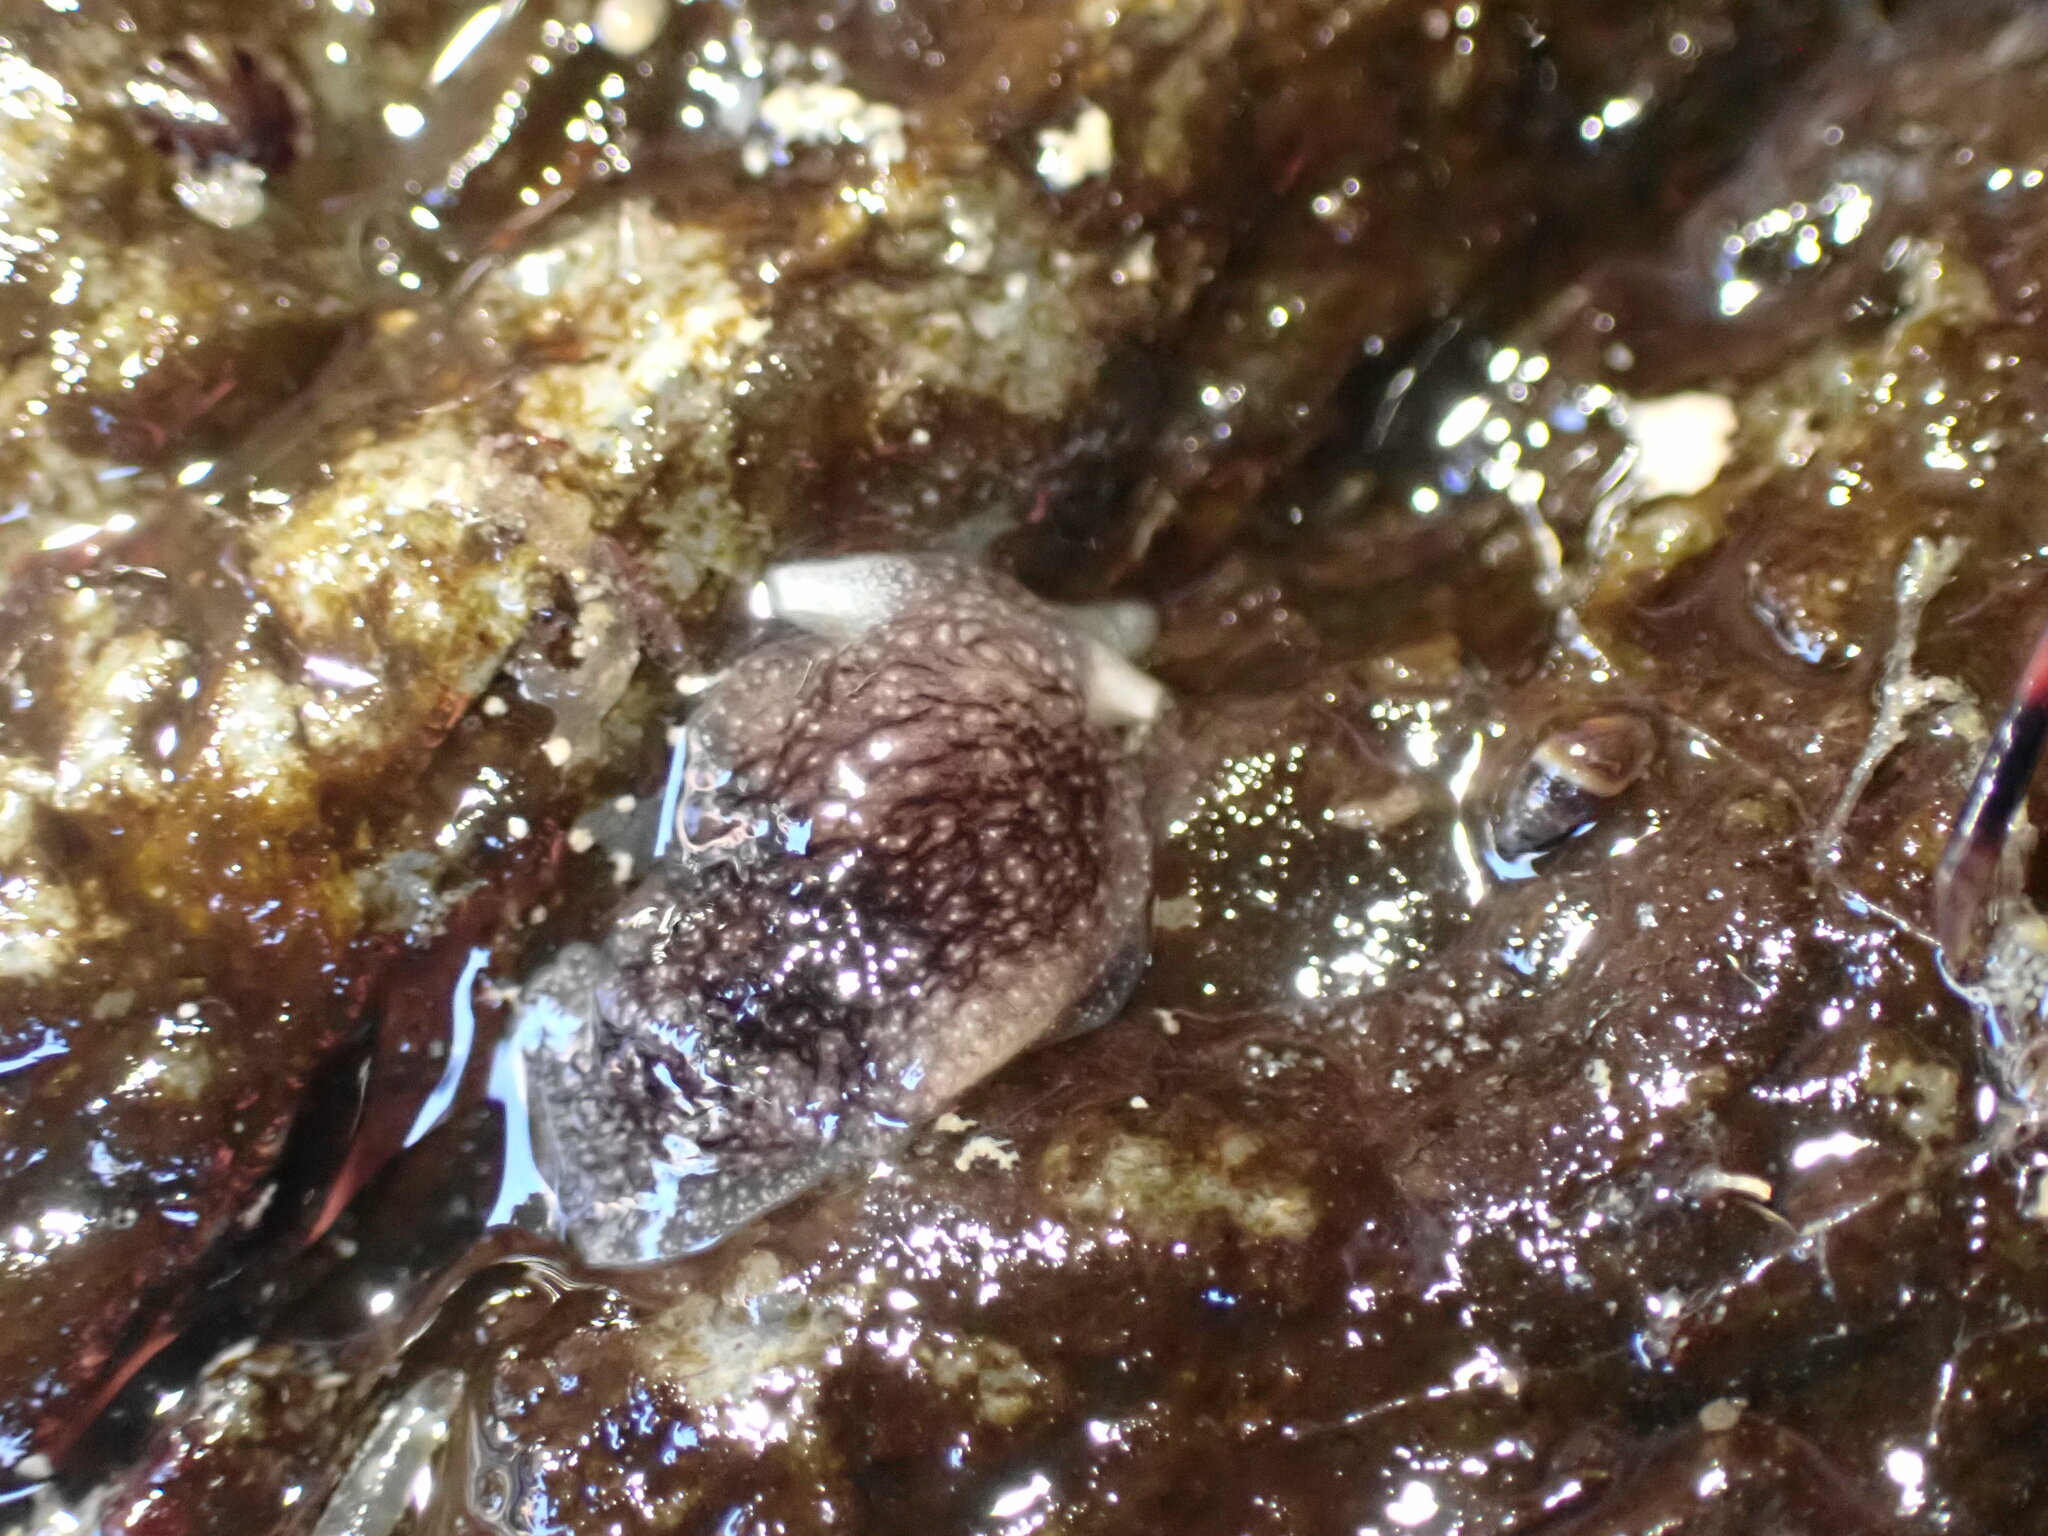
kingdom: Animalia
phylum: Mollusca
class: Gastropoda
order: Pleurobranchida
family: Pleurobranchaeidae
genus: Pleurobranchaea
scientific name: Pleurobranchaea maculata
